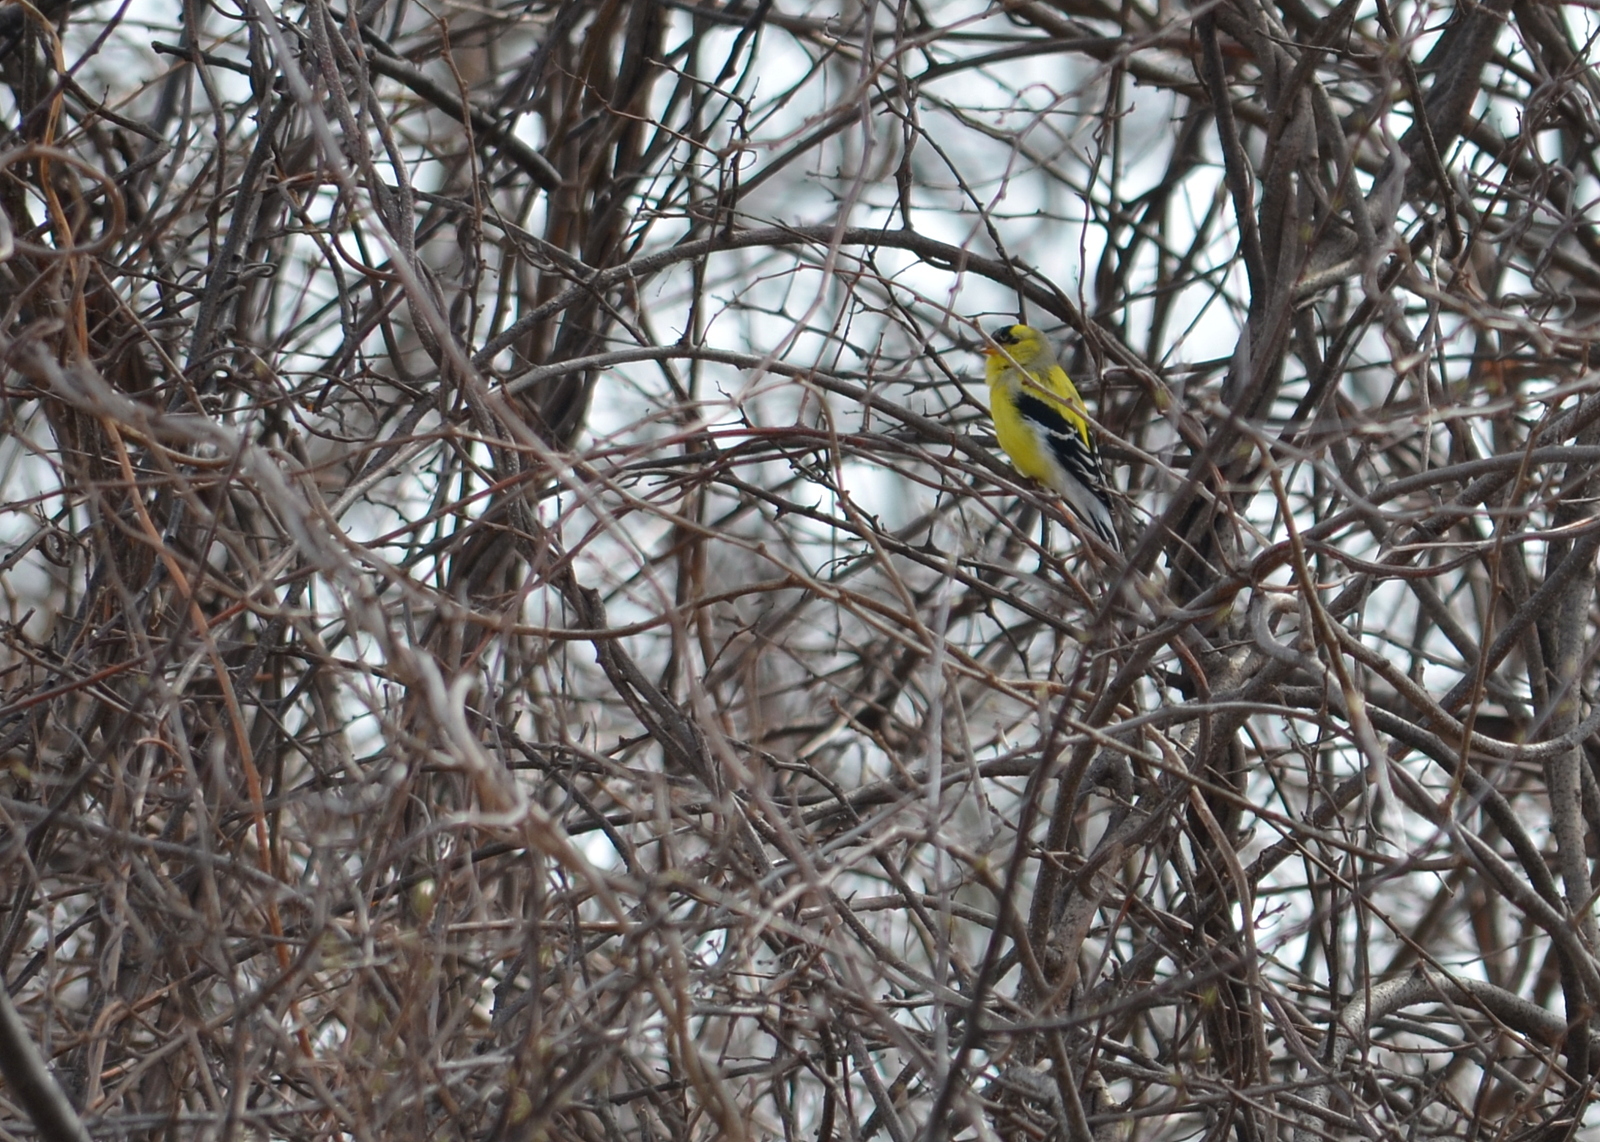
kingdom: Animalia
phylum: Chordata
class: Aves
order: Passeriformes
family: Fringillidae
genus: Spinus
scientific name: Spinus tristis
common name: American goldfinch
